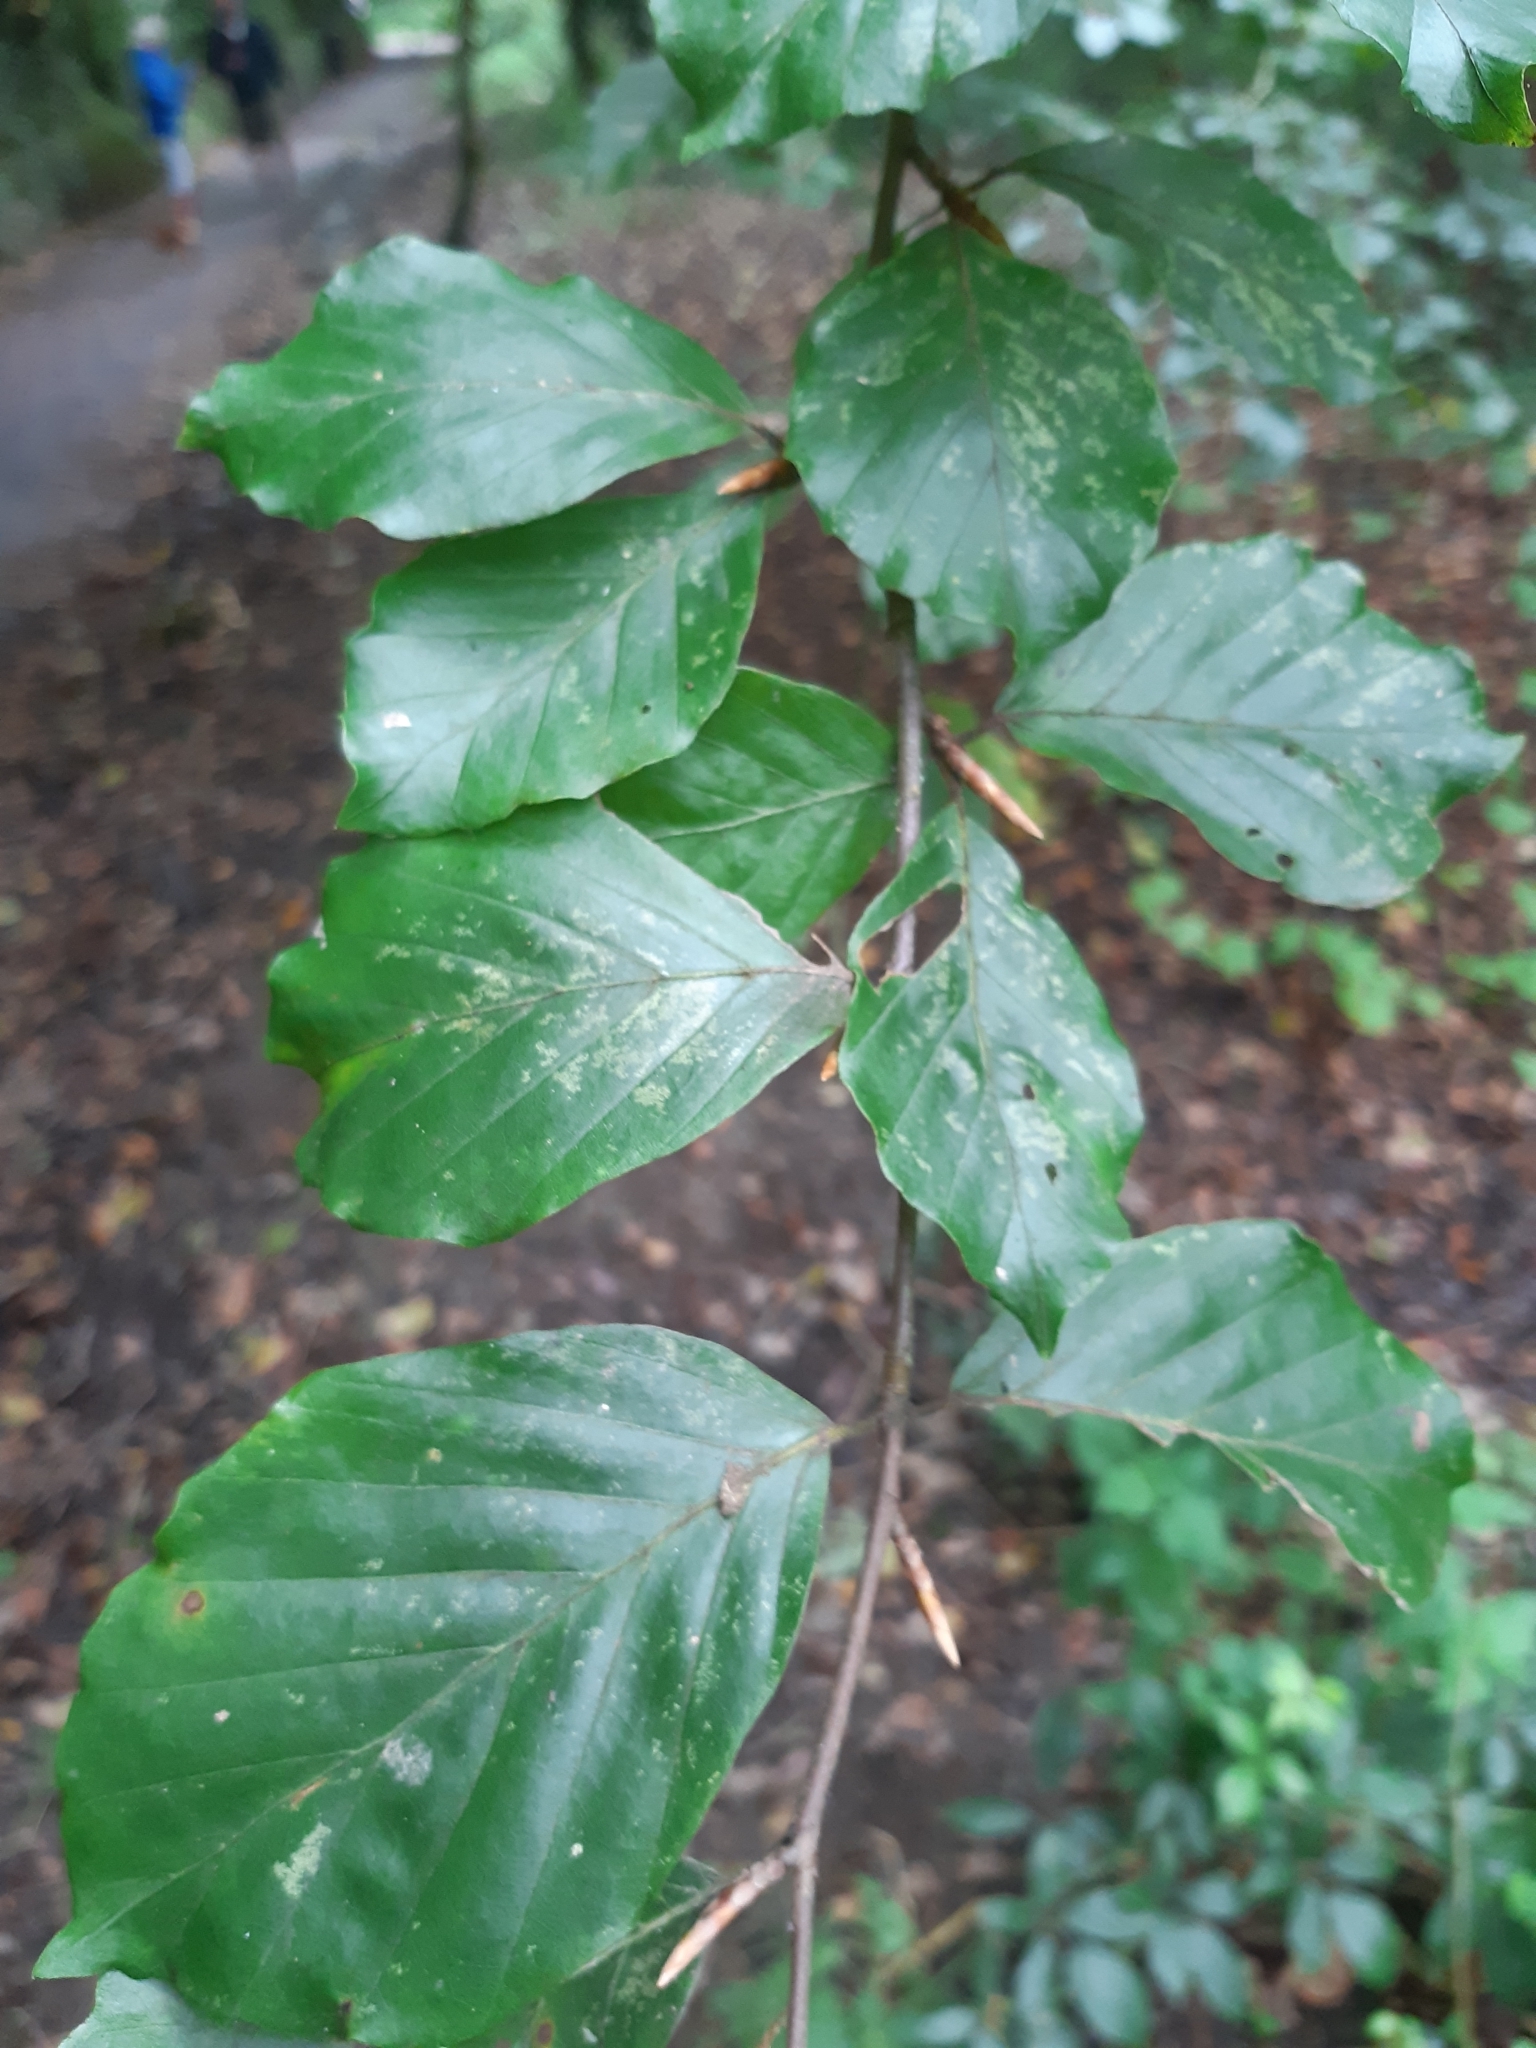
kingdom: Plantae
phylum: Tracheophyta
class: Magnoliopsida
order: Fagales
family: Fagaceae
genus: Fagus
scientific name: Fagus sylvatica
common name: Beech
